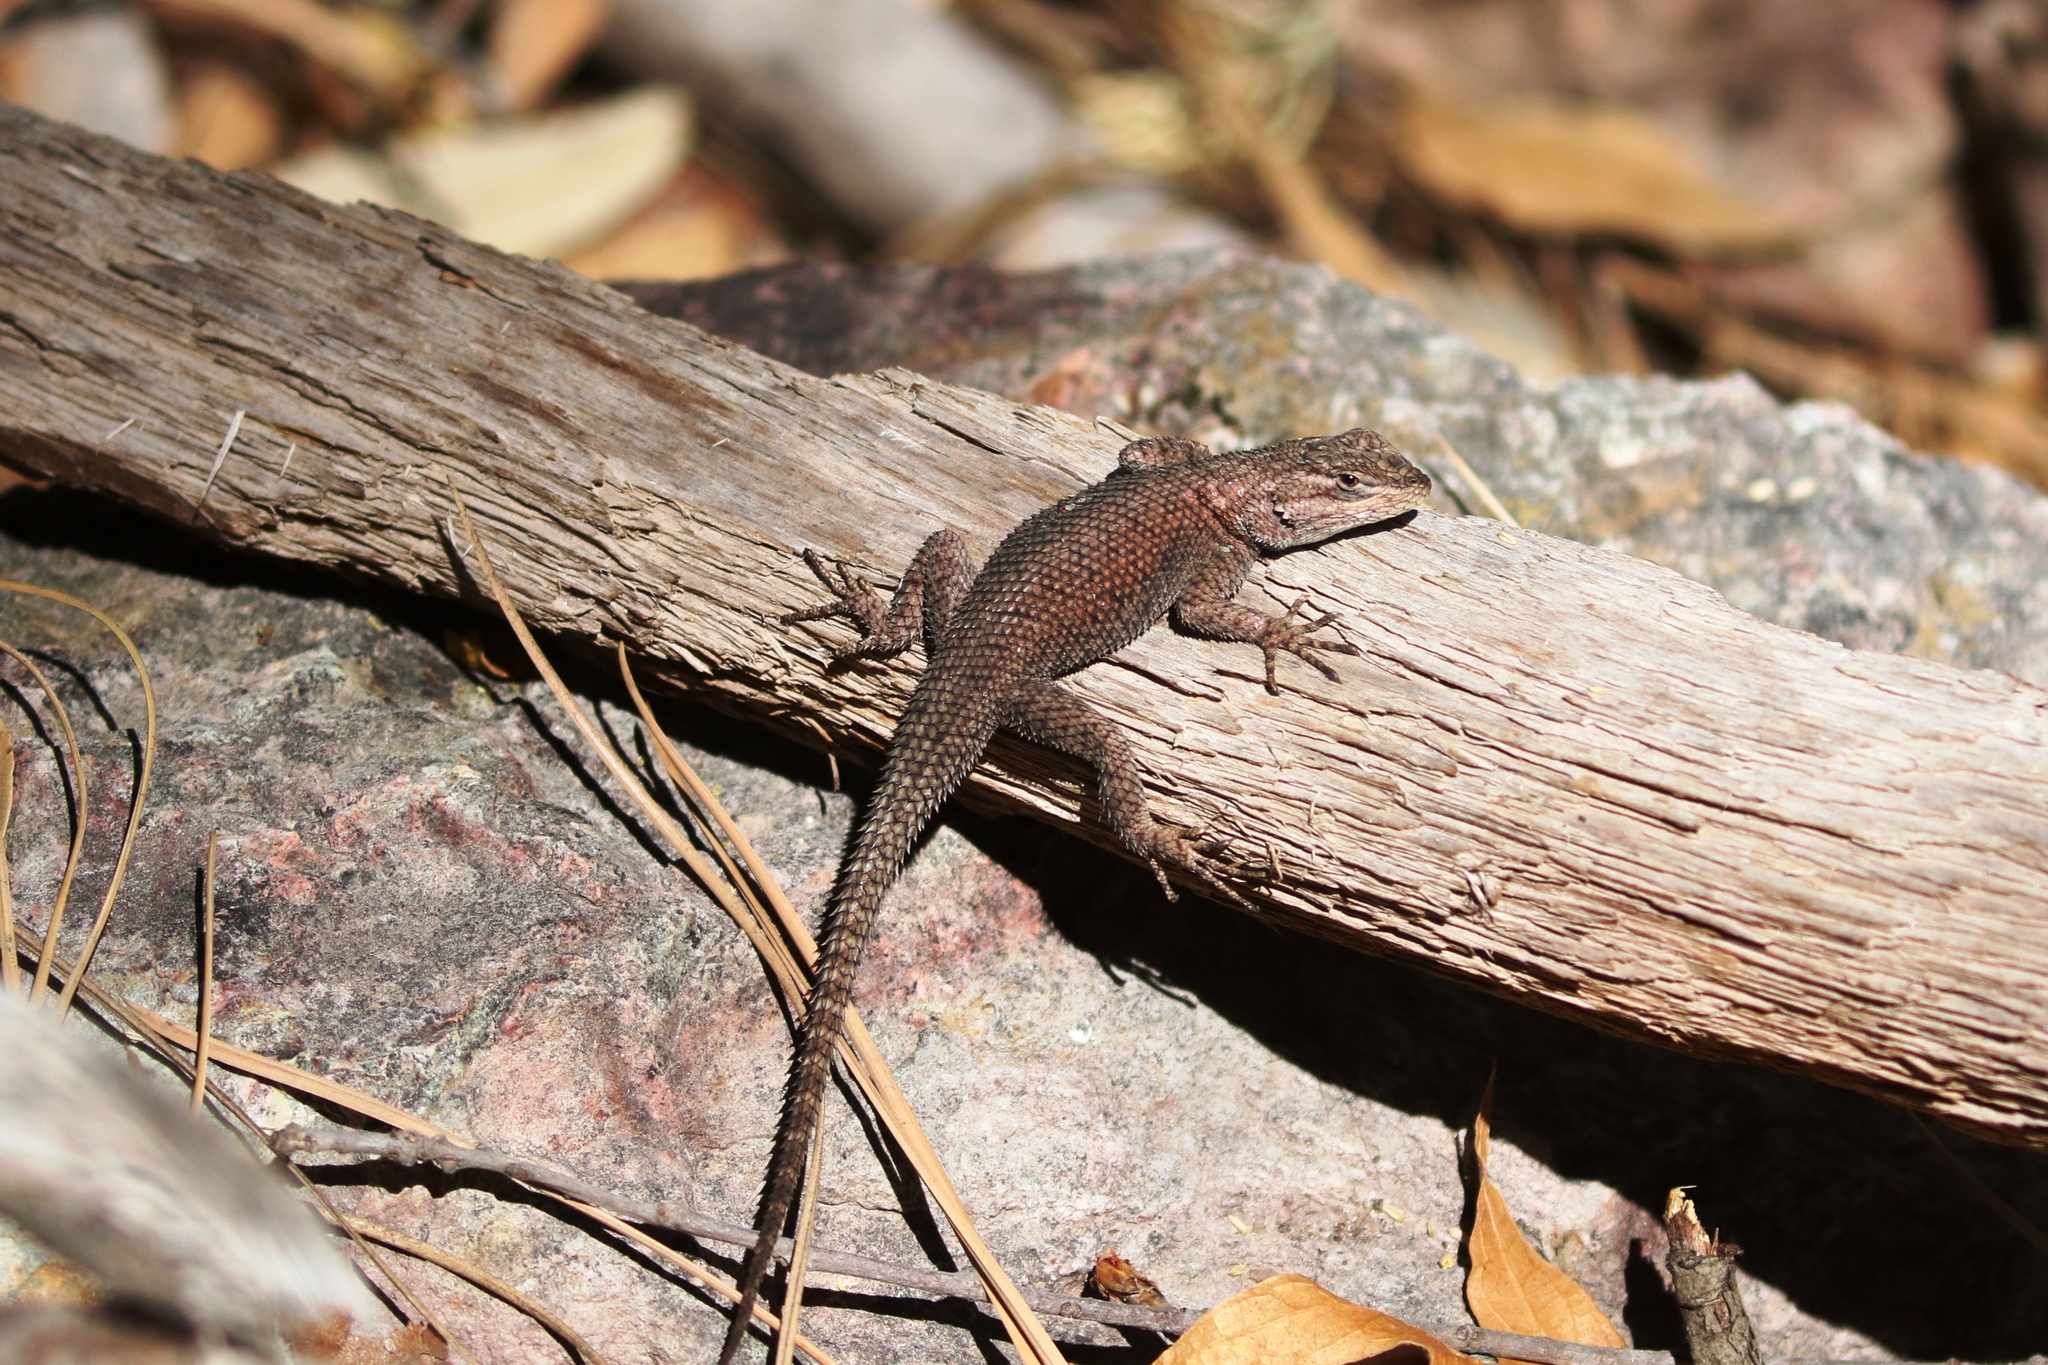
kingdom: Animalia
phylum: Chordata
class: Squamata
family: Phrynosomatidae
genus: Sceloporus
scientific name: Sceloporus jarrovii
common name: Yarrow's spiny lizard
